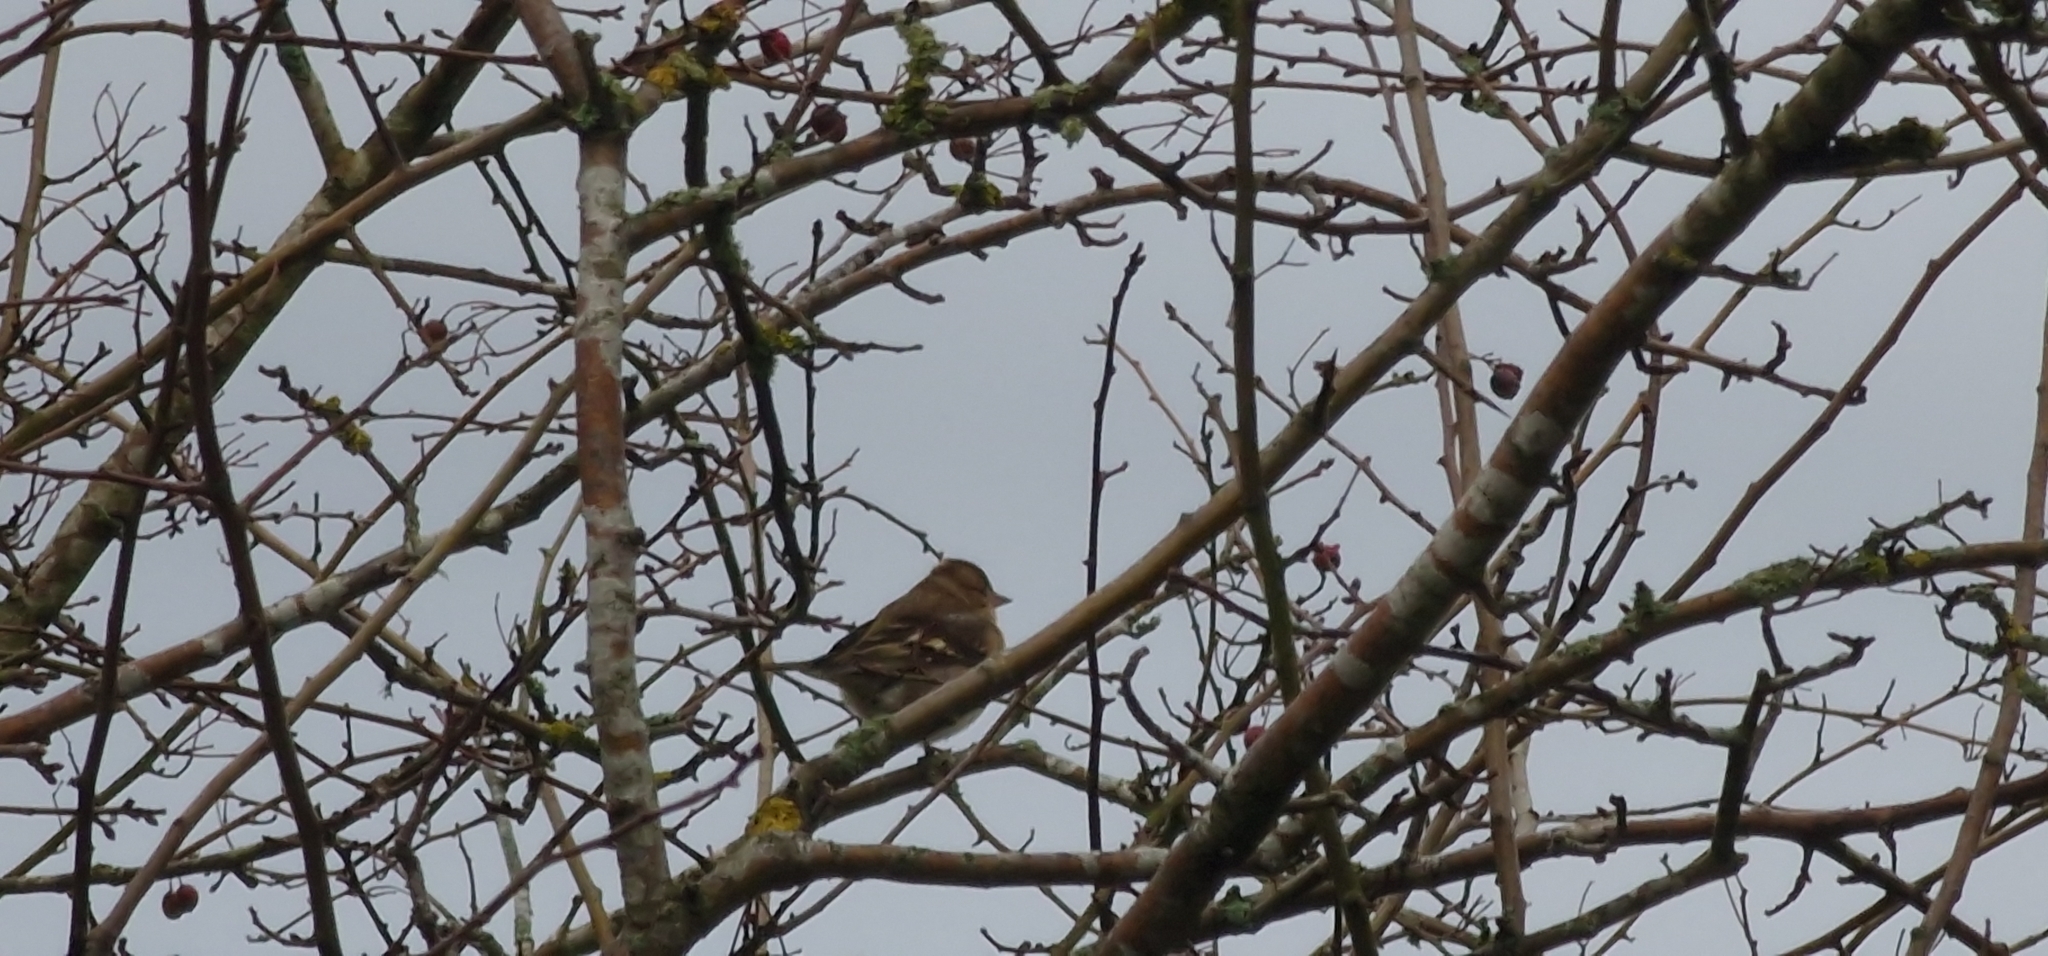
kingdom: Animalia
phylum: Chordata
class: Aves
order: Passeriformes
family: Fringillidae
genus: Fringilla
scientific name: Fringilla coelebs
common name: Common chaffinch
